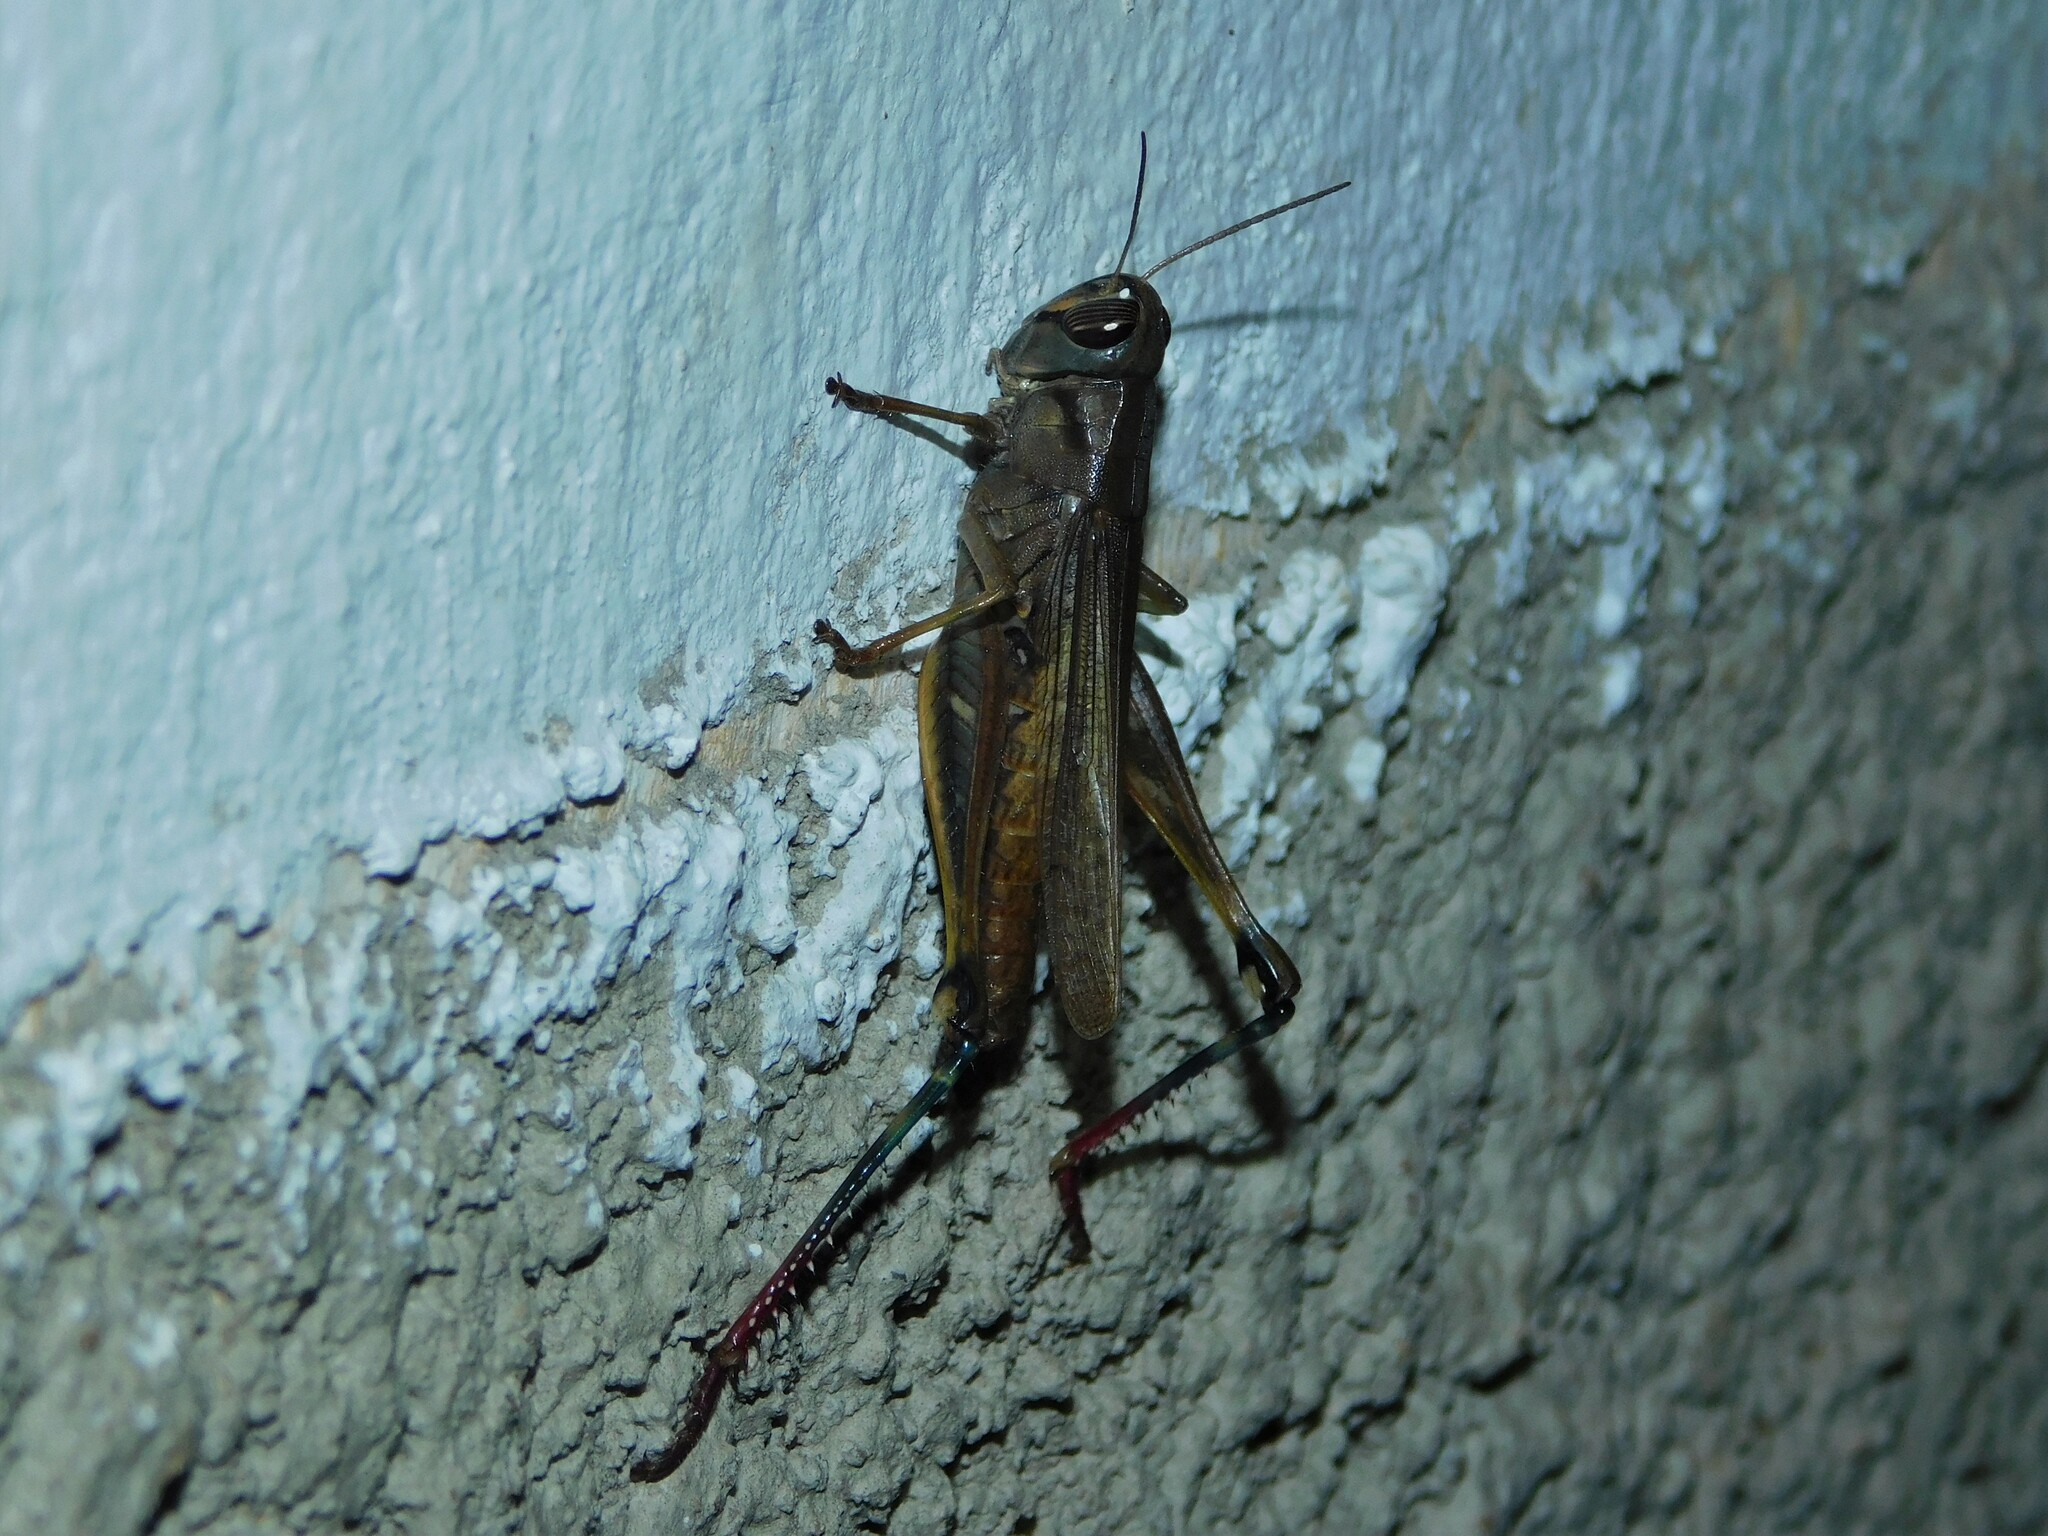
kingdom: Animalia
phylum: Arthropoda
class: Insecta
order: Orthoptera
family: Acrididae
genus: Eyprepocnemis
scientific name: Eyprepocnemis plorans
